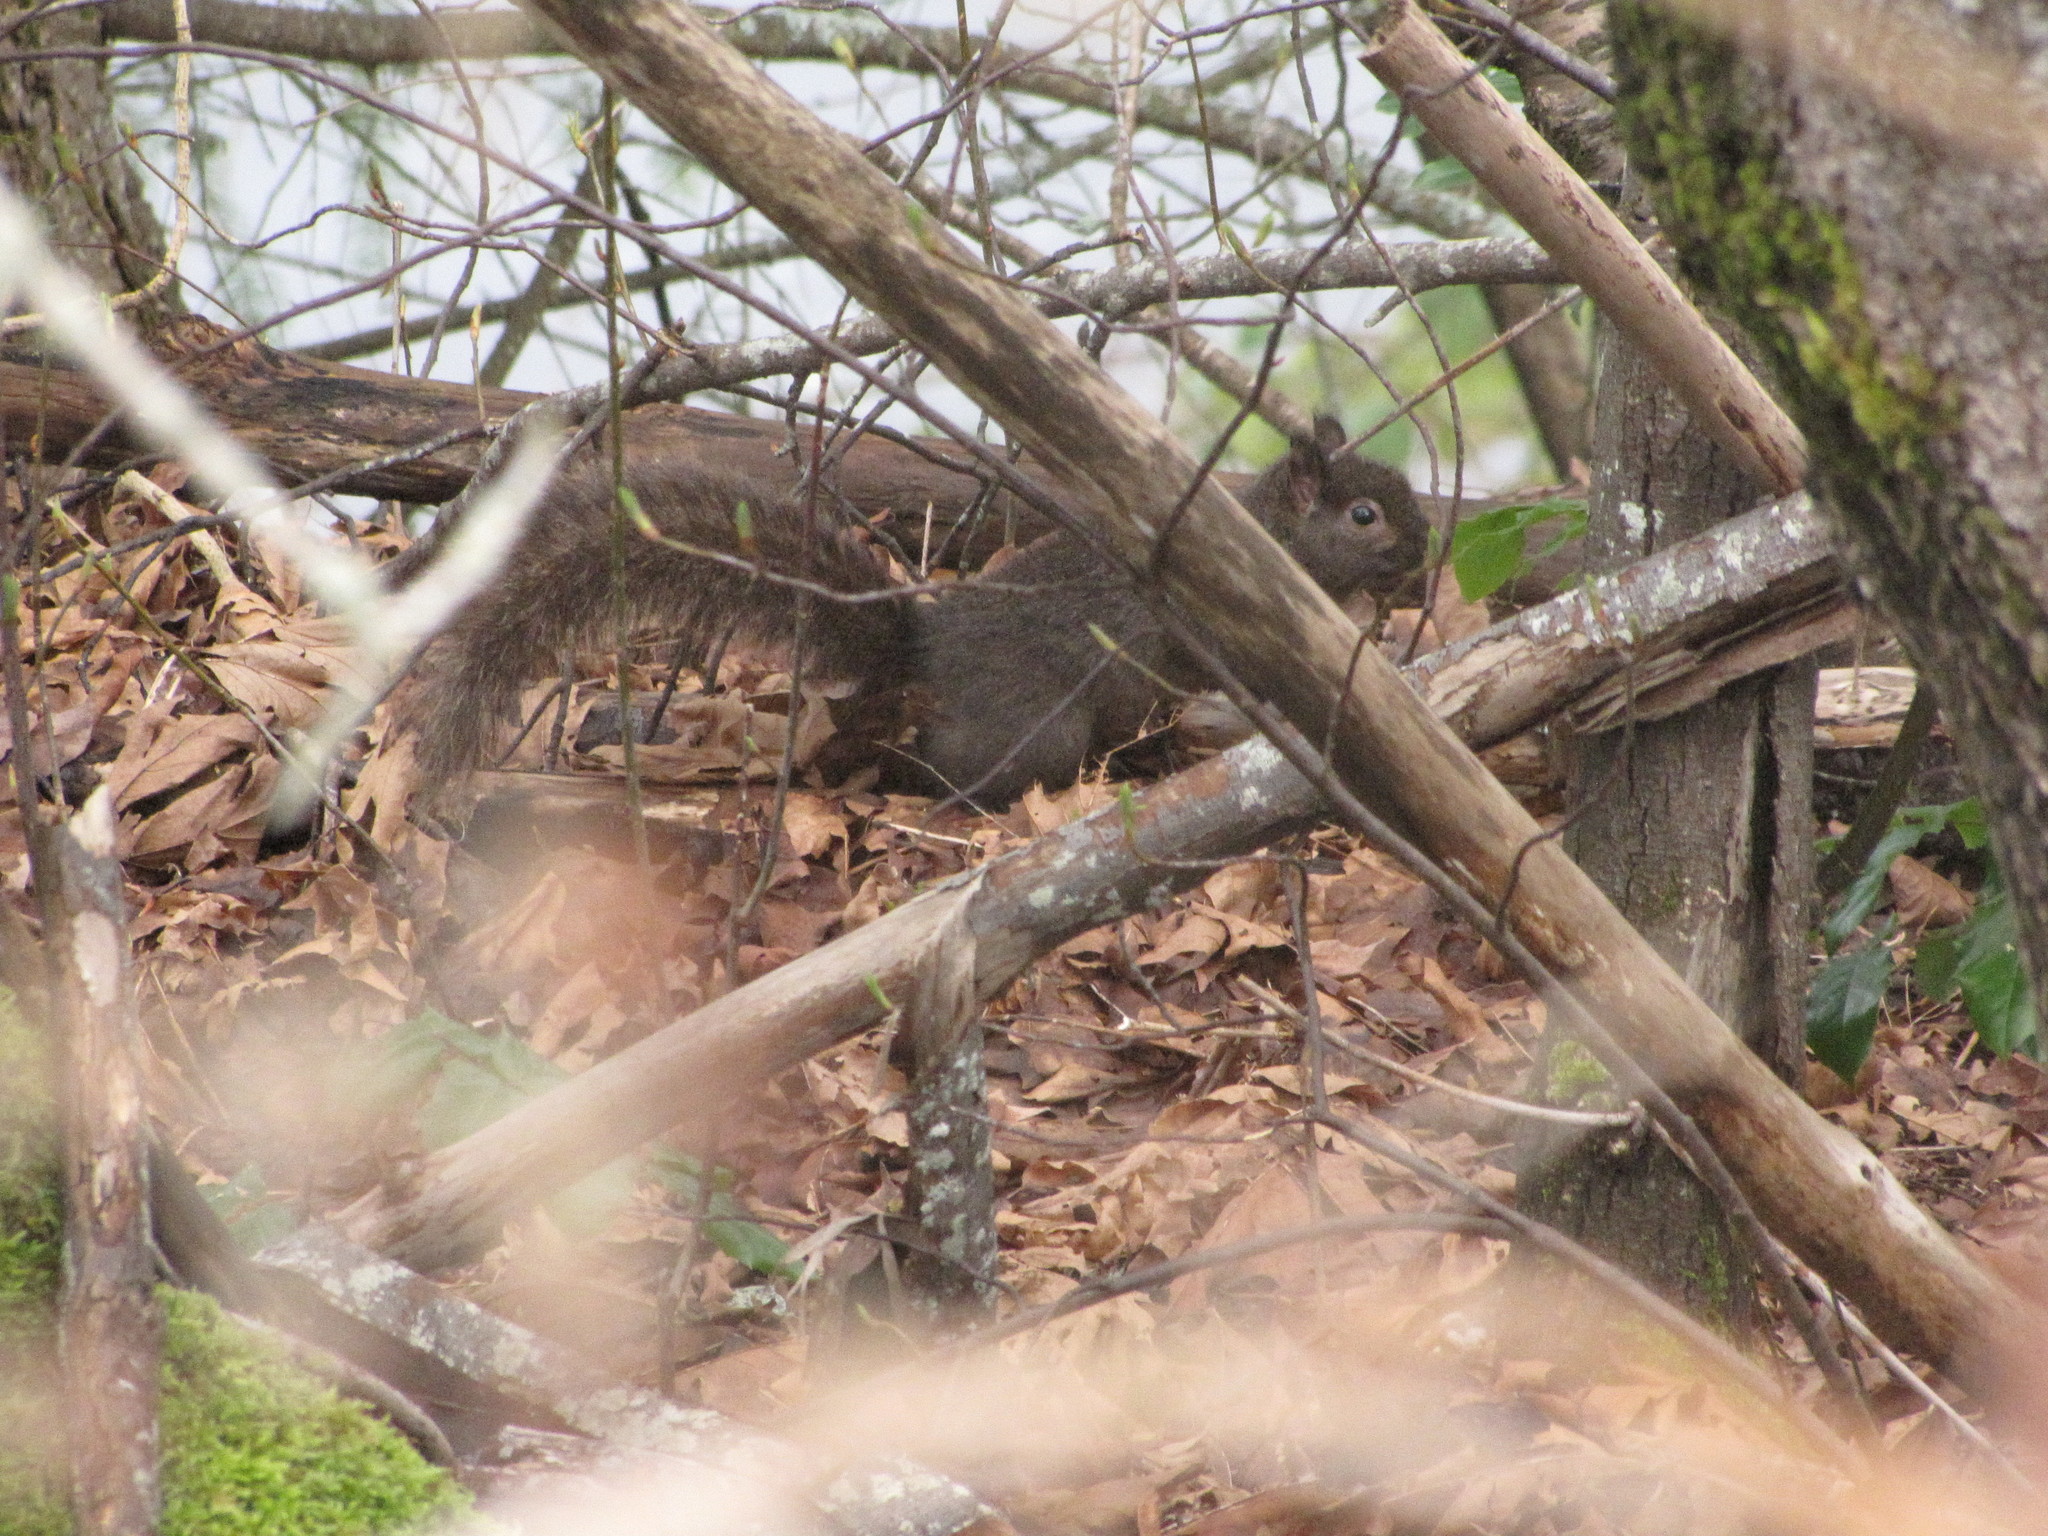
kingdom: Animalia
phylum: Chordata
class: Mammalia
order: Rodentia
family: Sciuridae
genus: Sciurus
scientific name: Sciurus carolinensis
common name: Eastern gray squirrel
